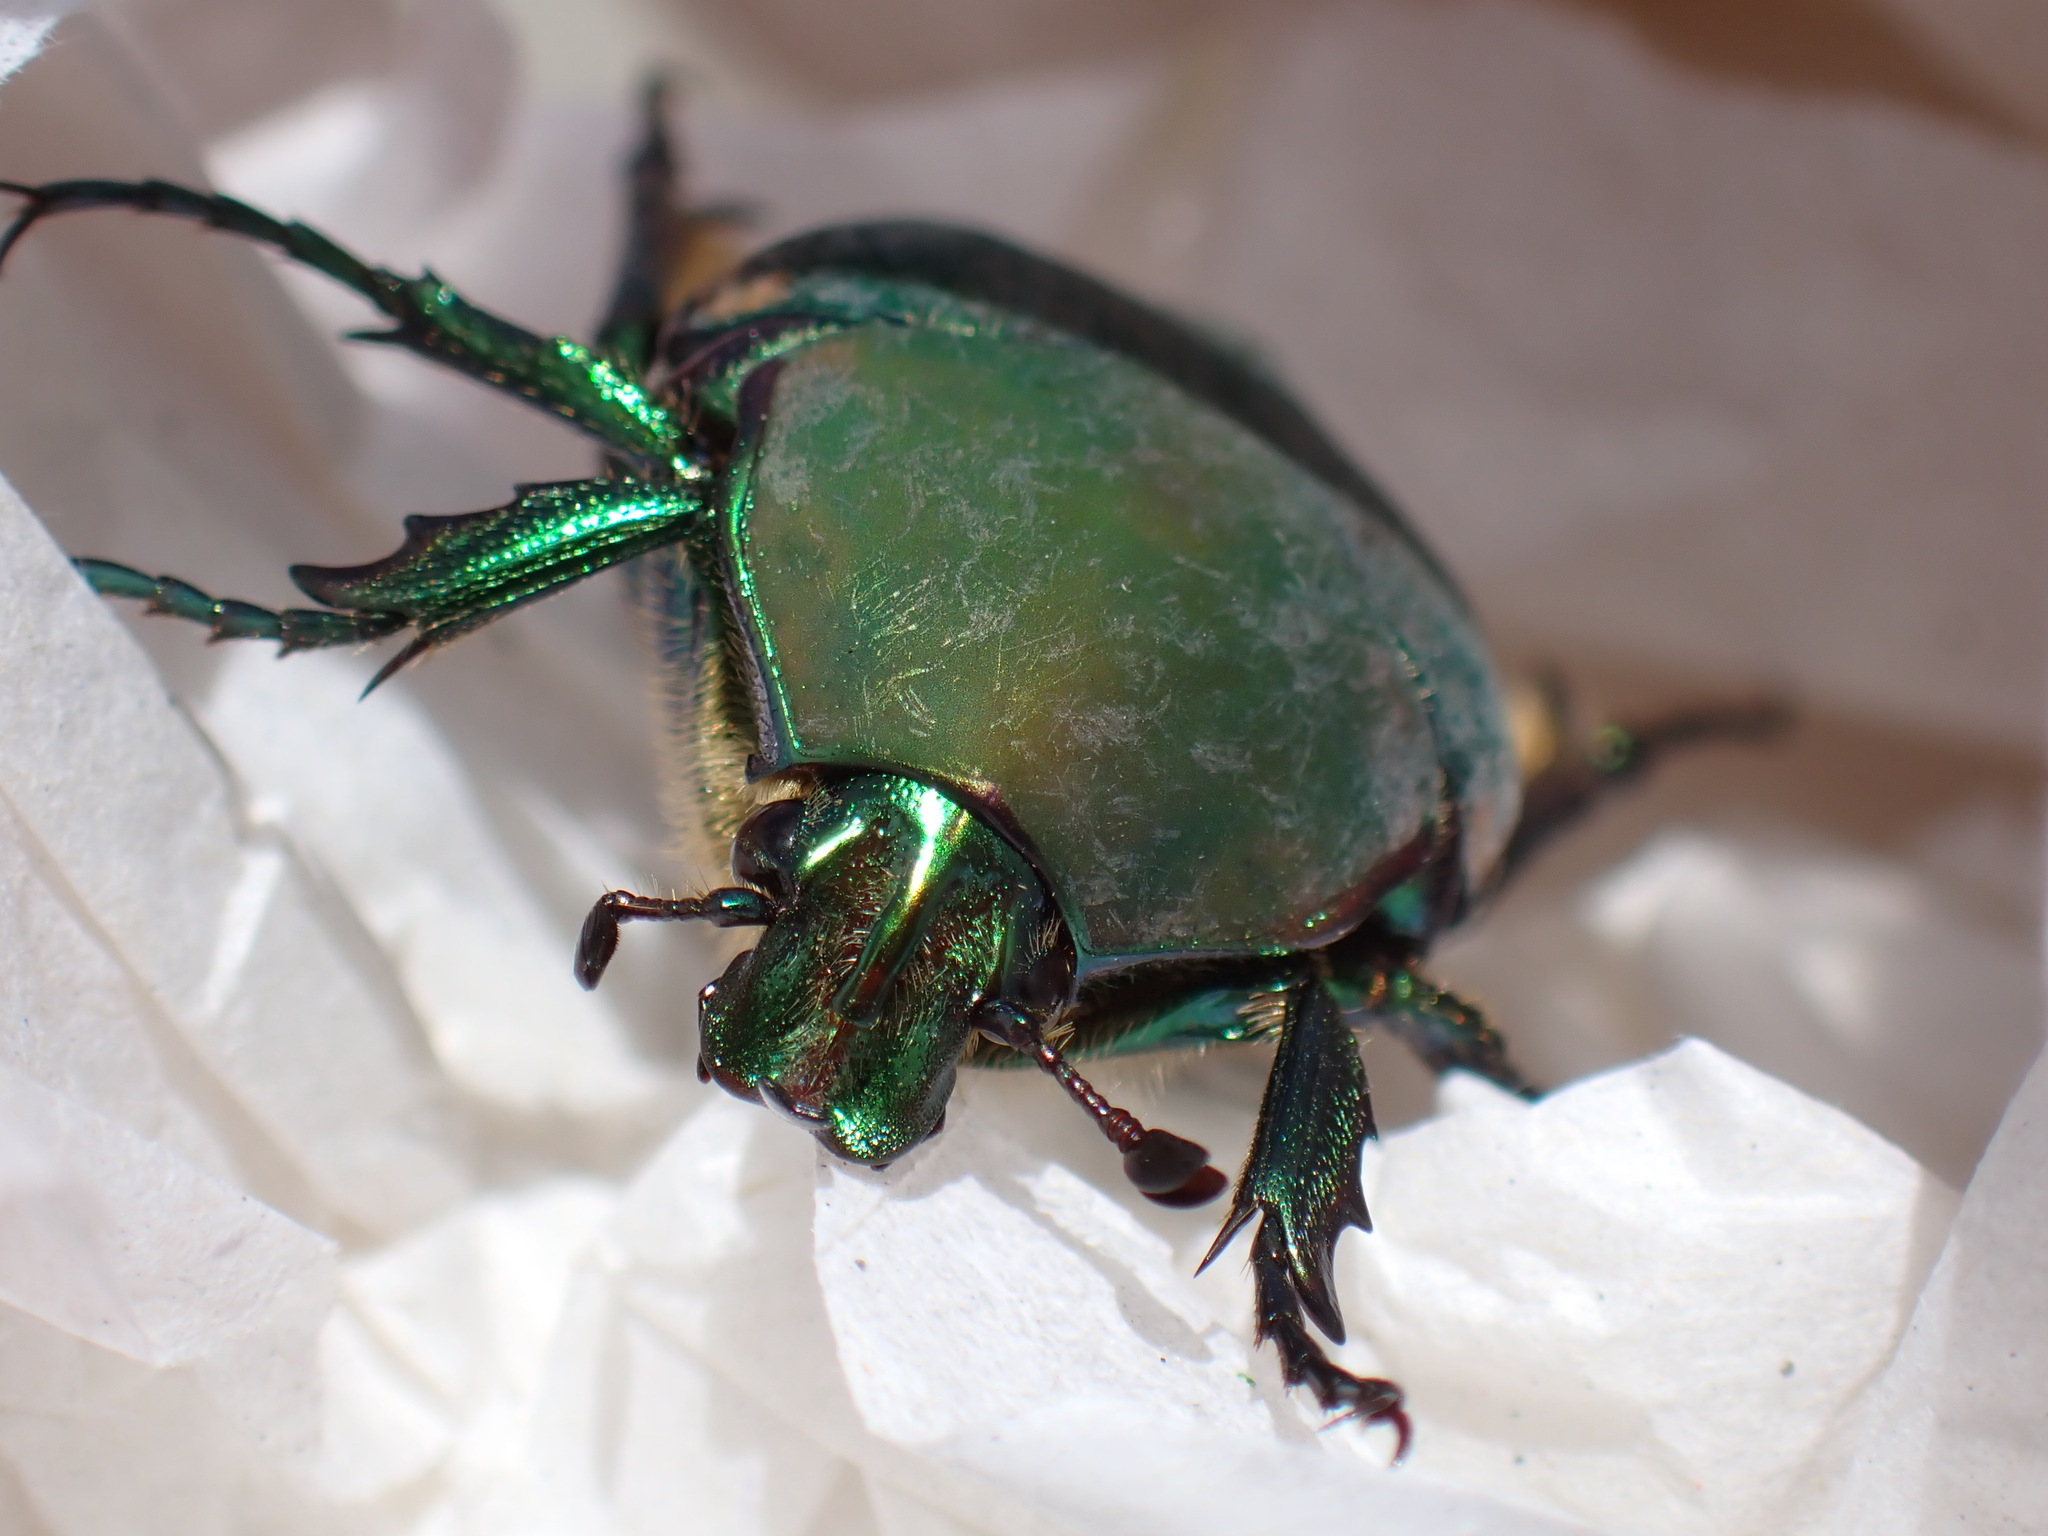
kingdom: Animalia
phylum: Arthropoda
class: Insecta
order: Coleoptera
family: Scarabaeidae
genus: Cotinis
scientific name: Cotinis mutabilis
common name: Figeater beetle
